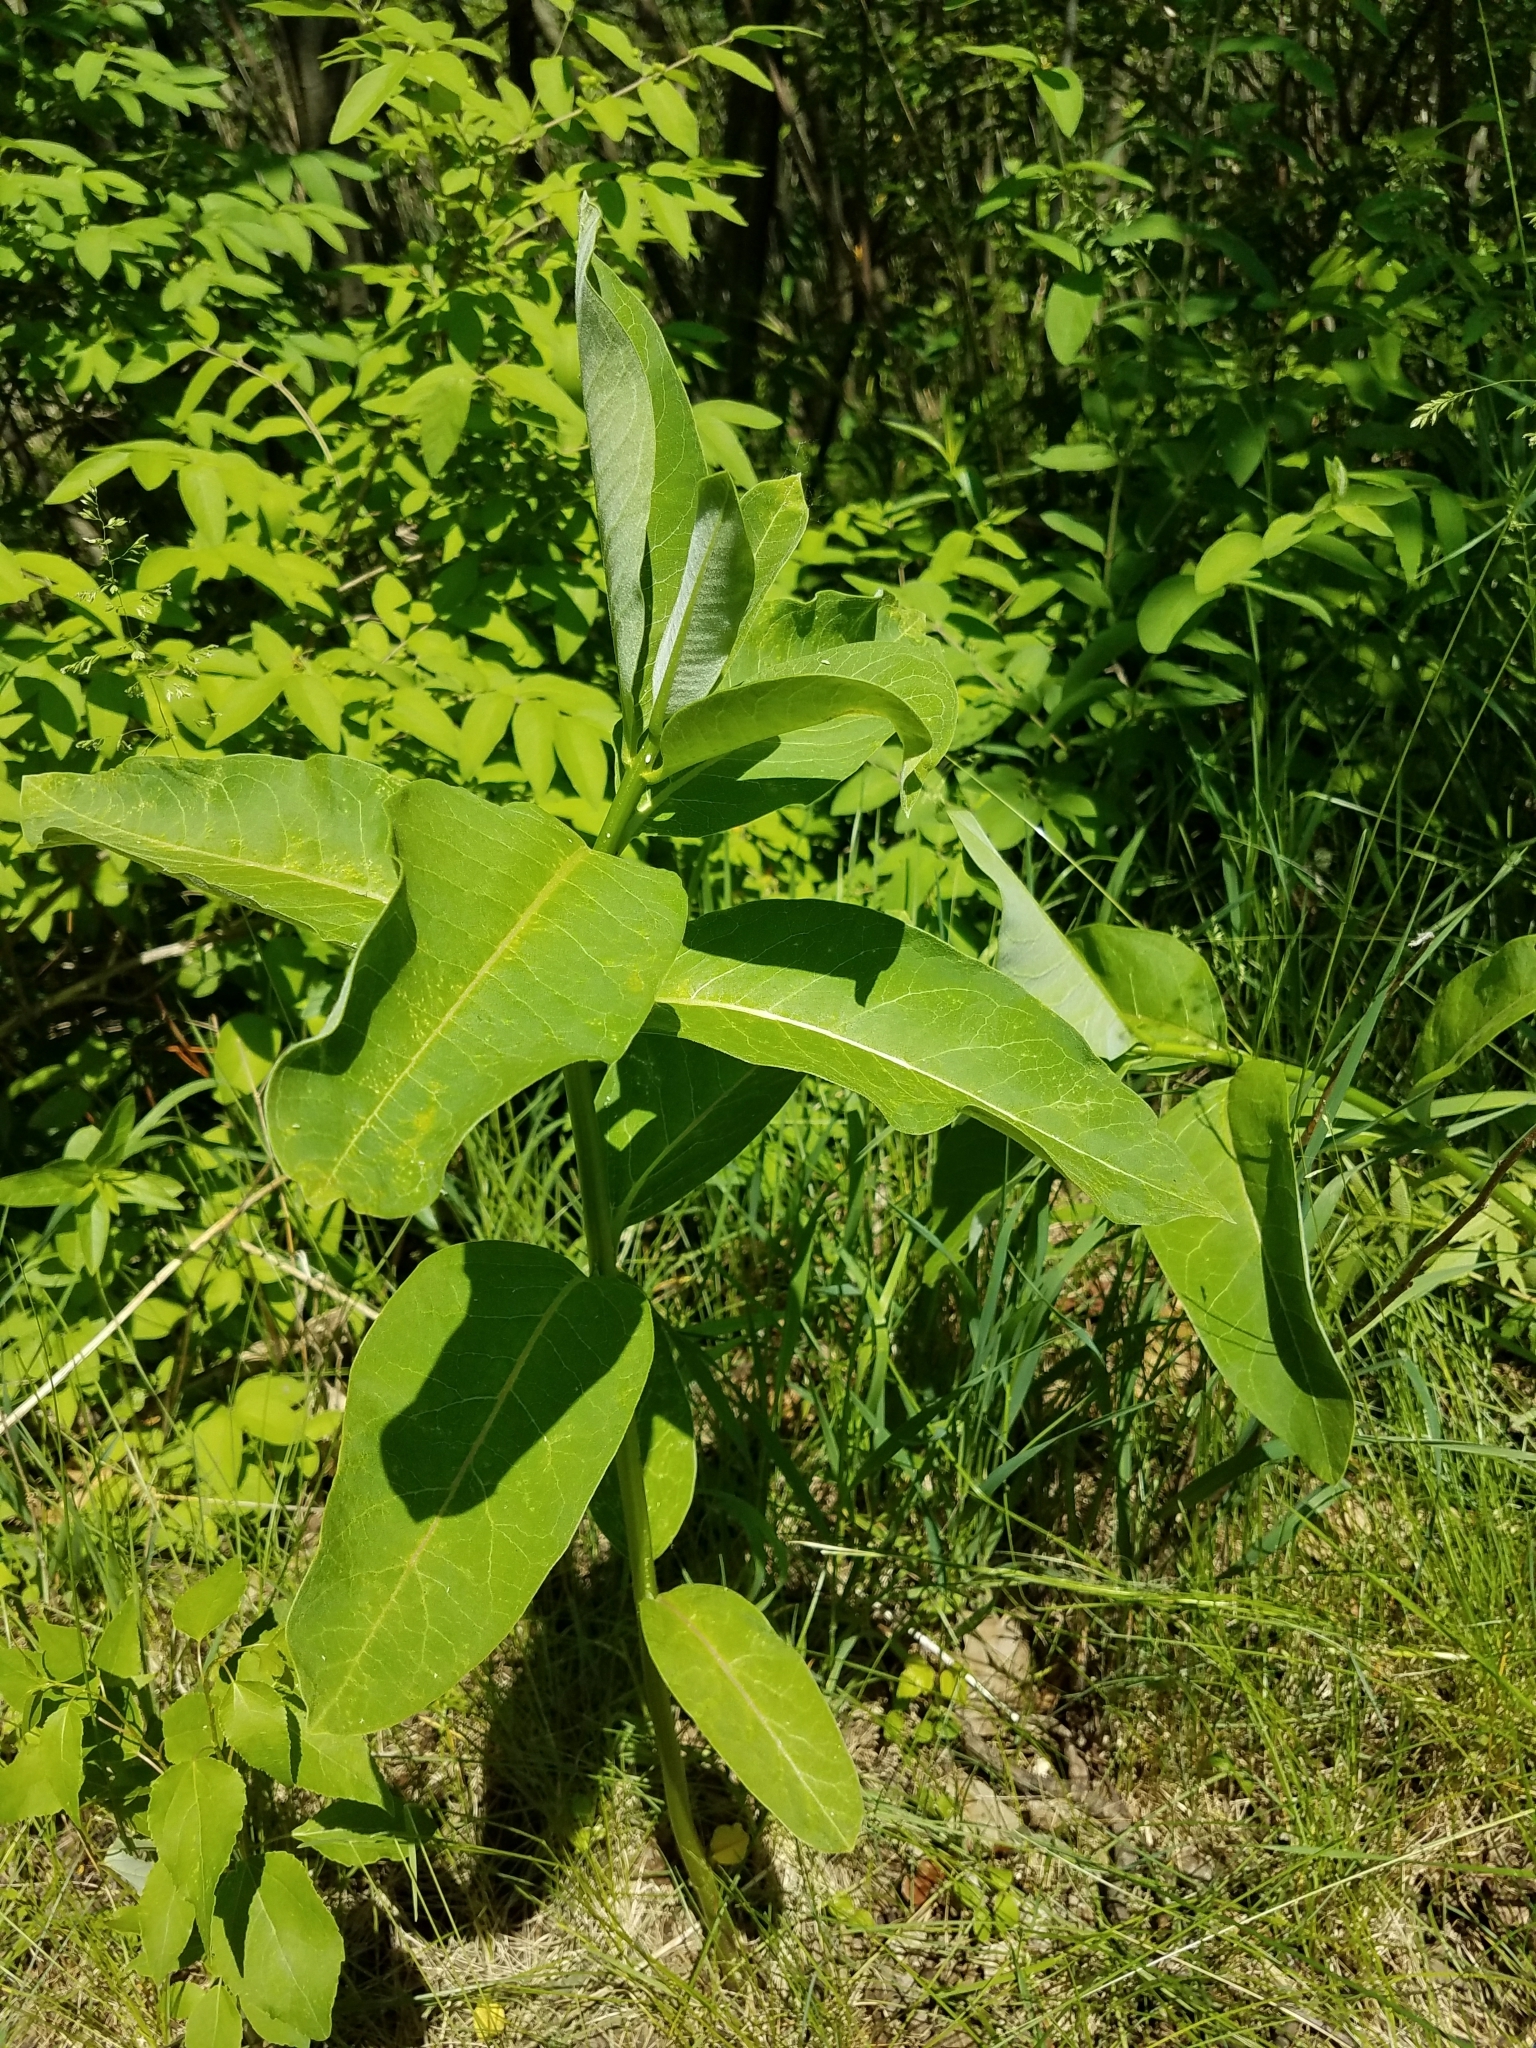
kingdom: Plantae
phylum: Tracheophyta
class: Magnoliopsida
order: Gentianales
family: Apocynaceae
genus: Asclepias
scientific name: Asclepias syriaca
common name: Common milkweed
